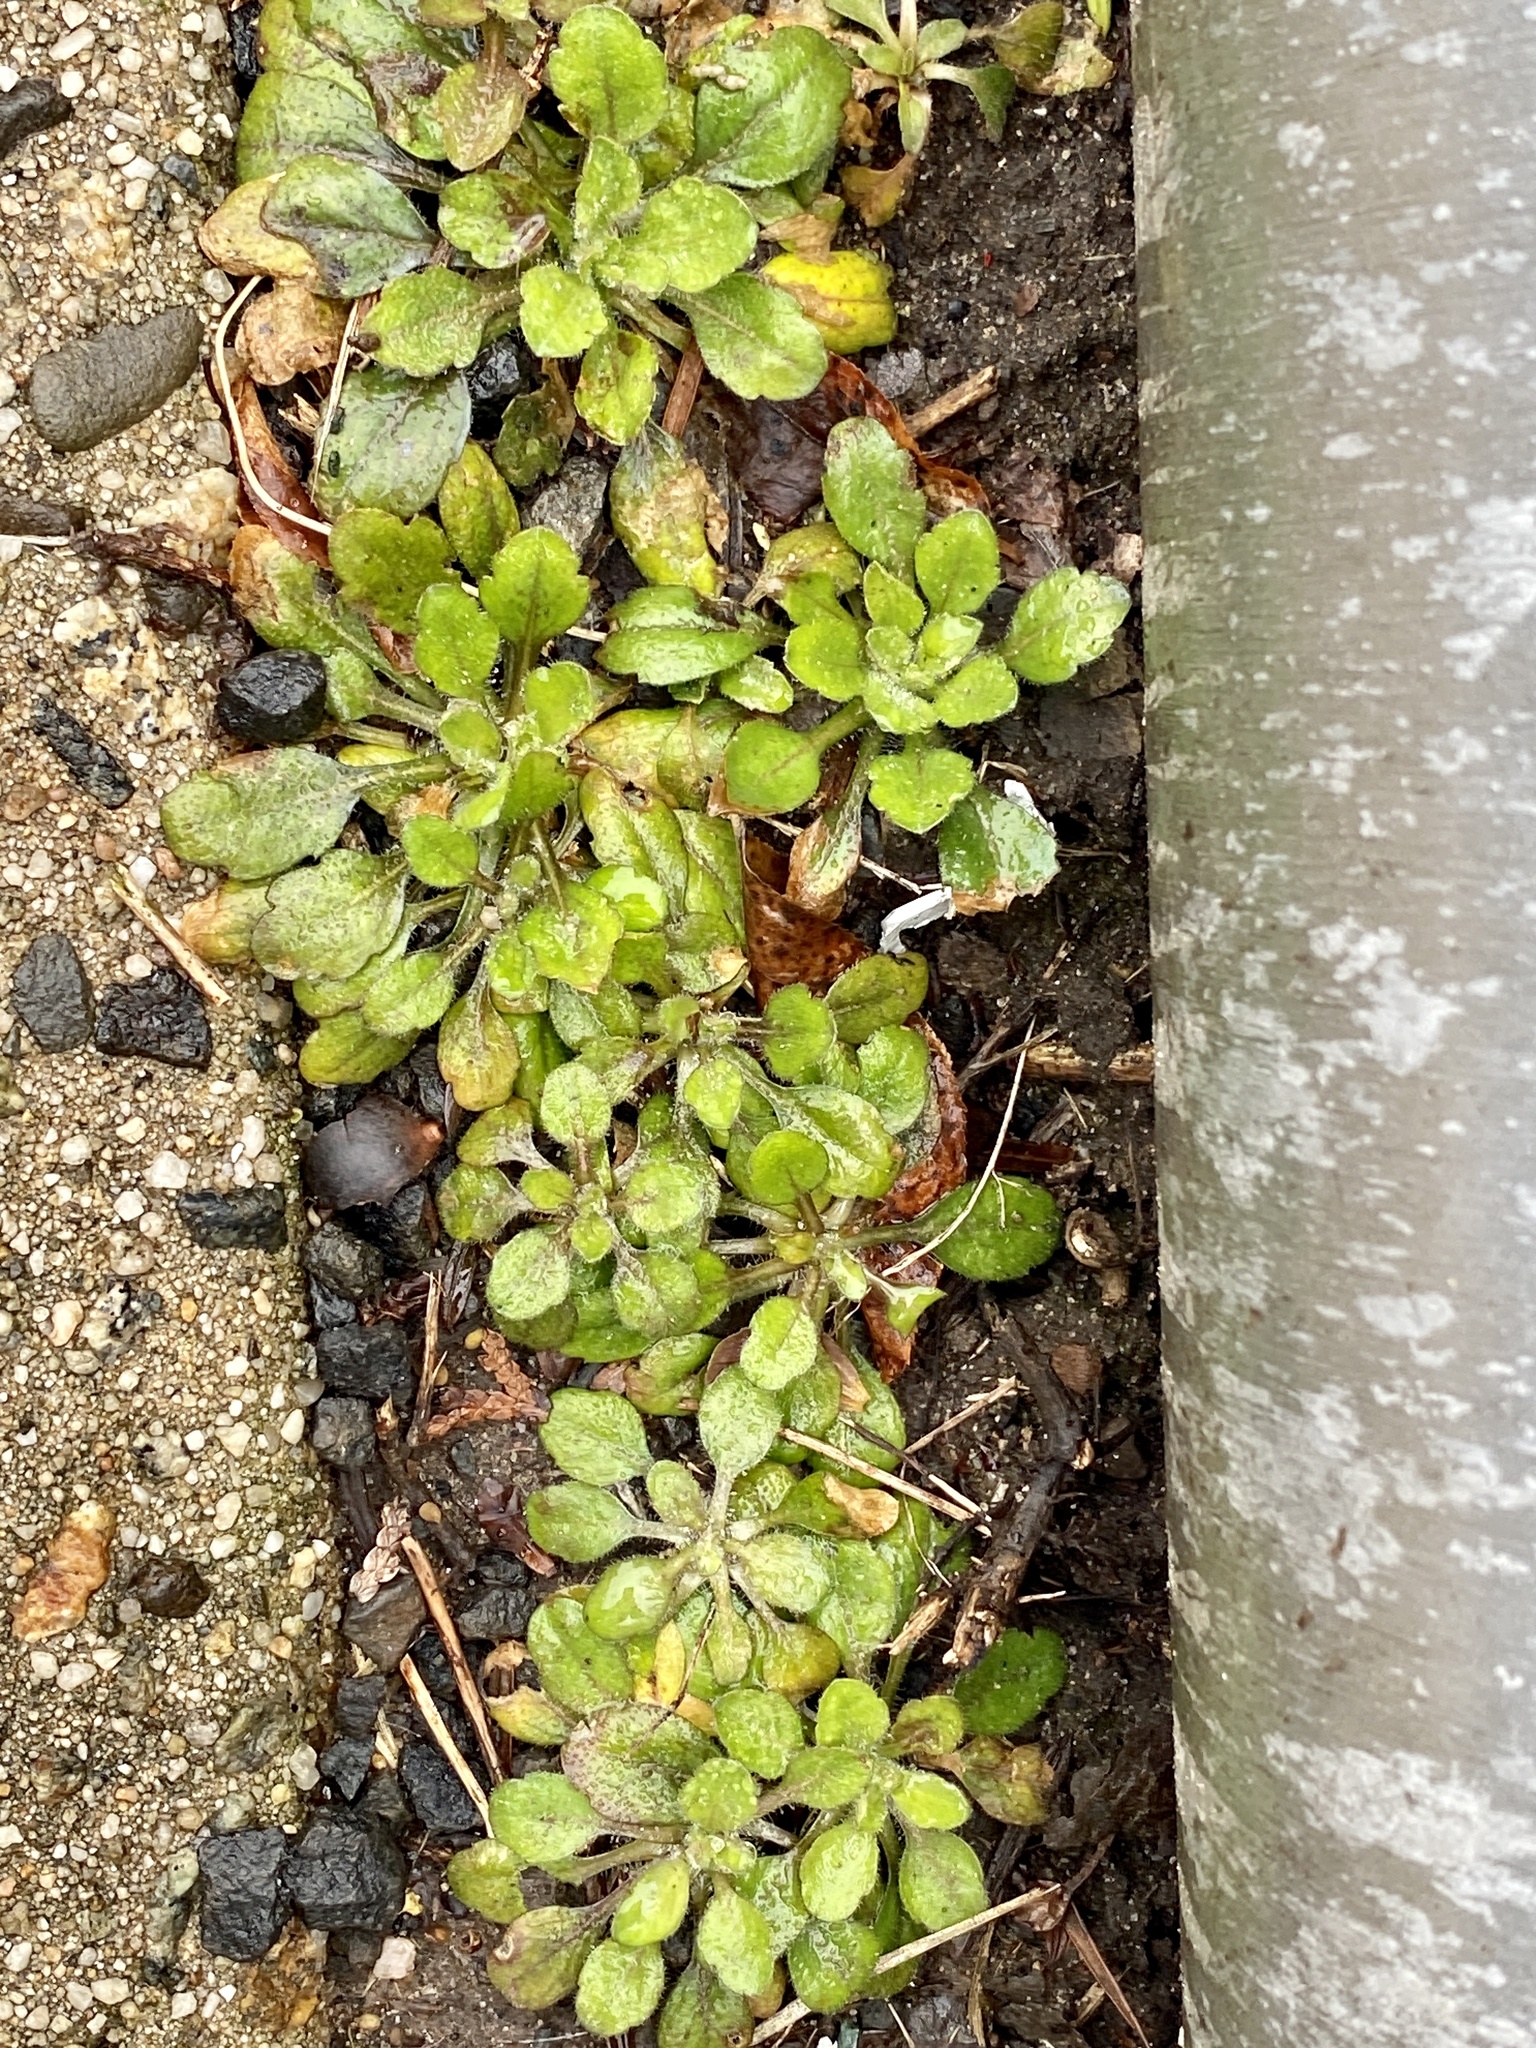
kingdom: Plantae
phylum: Tracheophyta
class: Magnoliopsida
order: Asterales
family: Asteraceae
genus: Erigeron
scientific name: Erigeron canadensis
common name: Canadian fleabane
